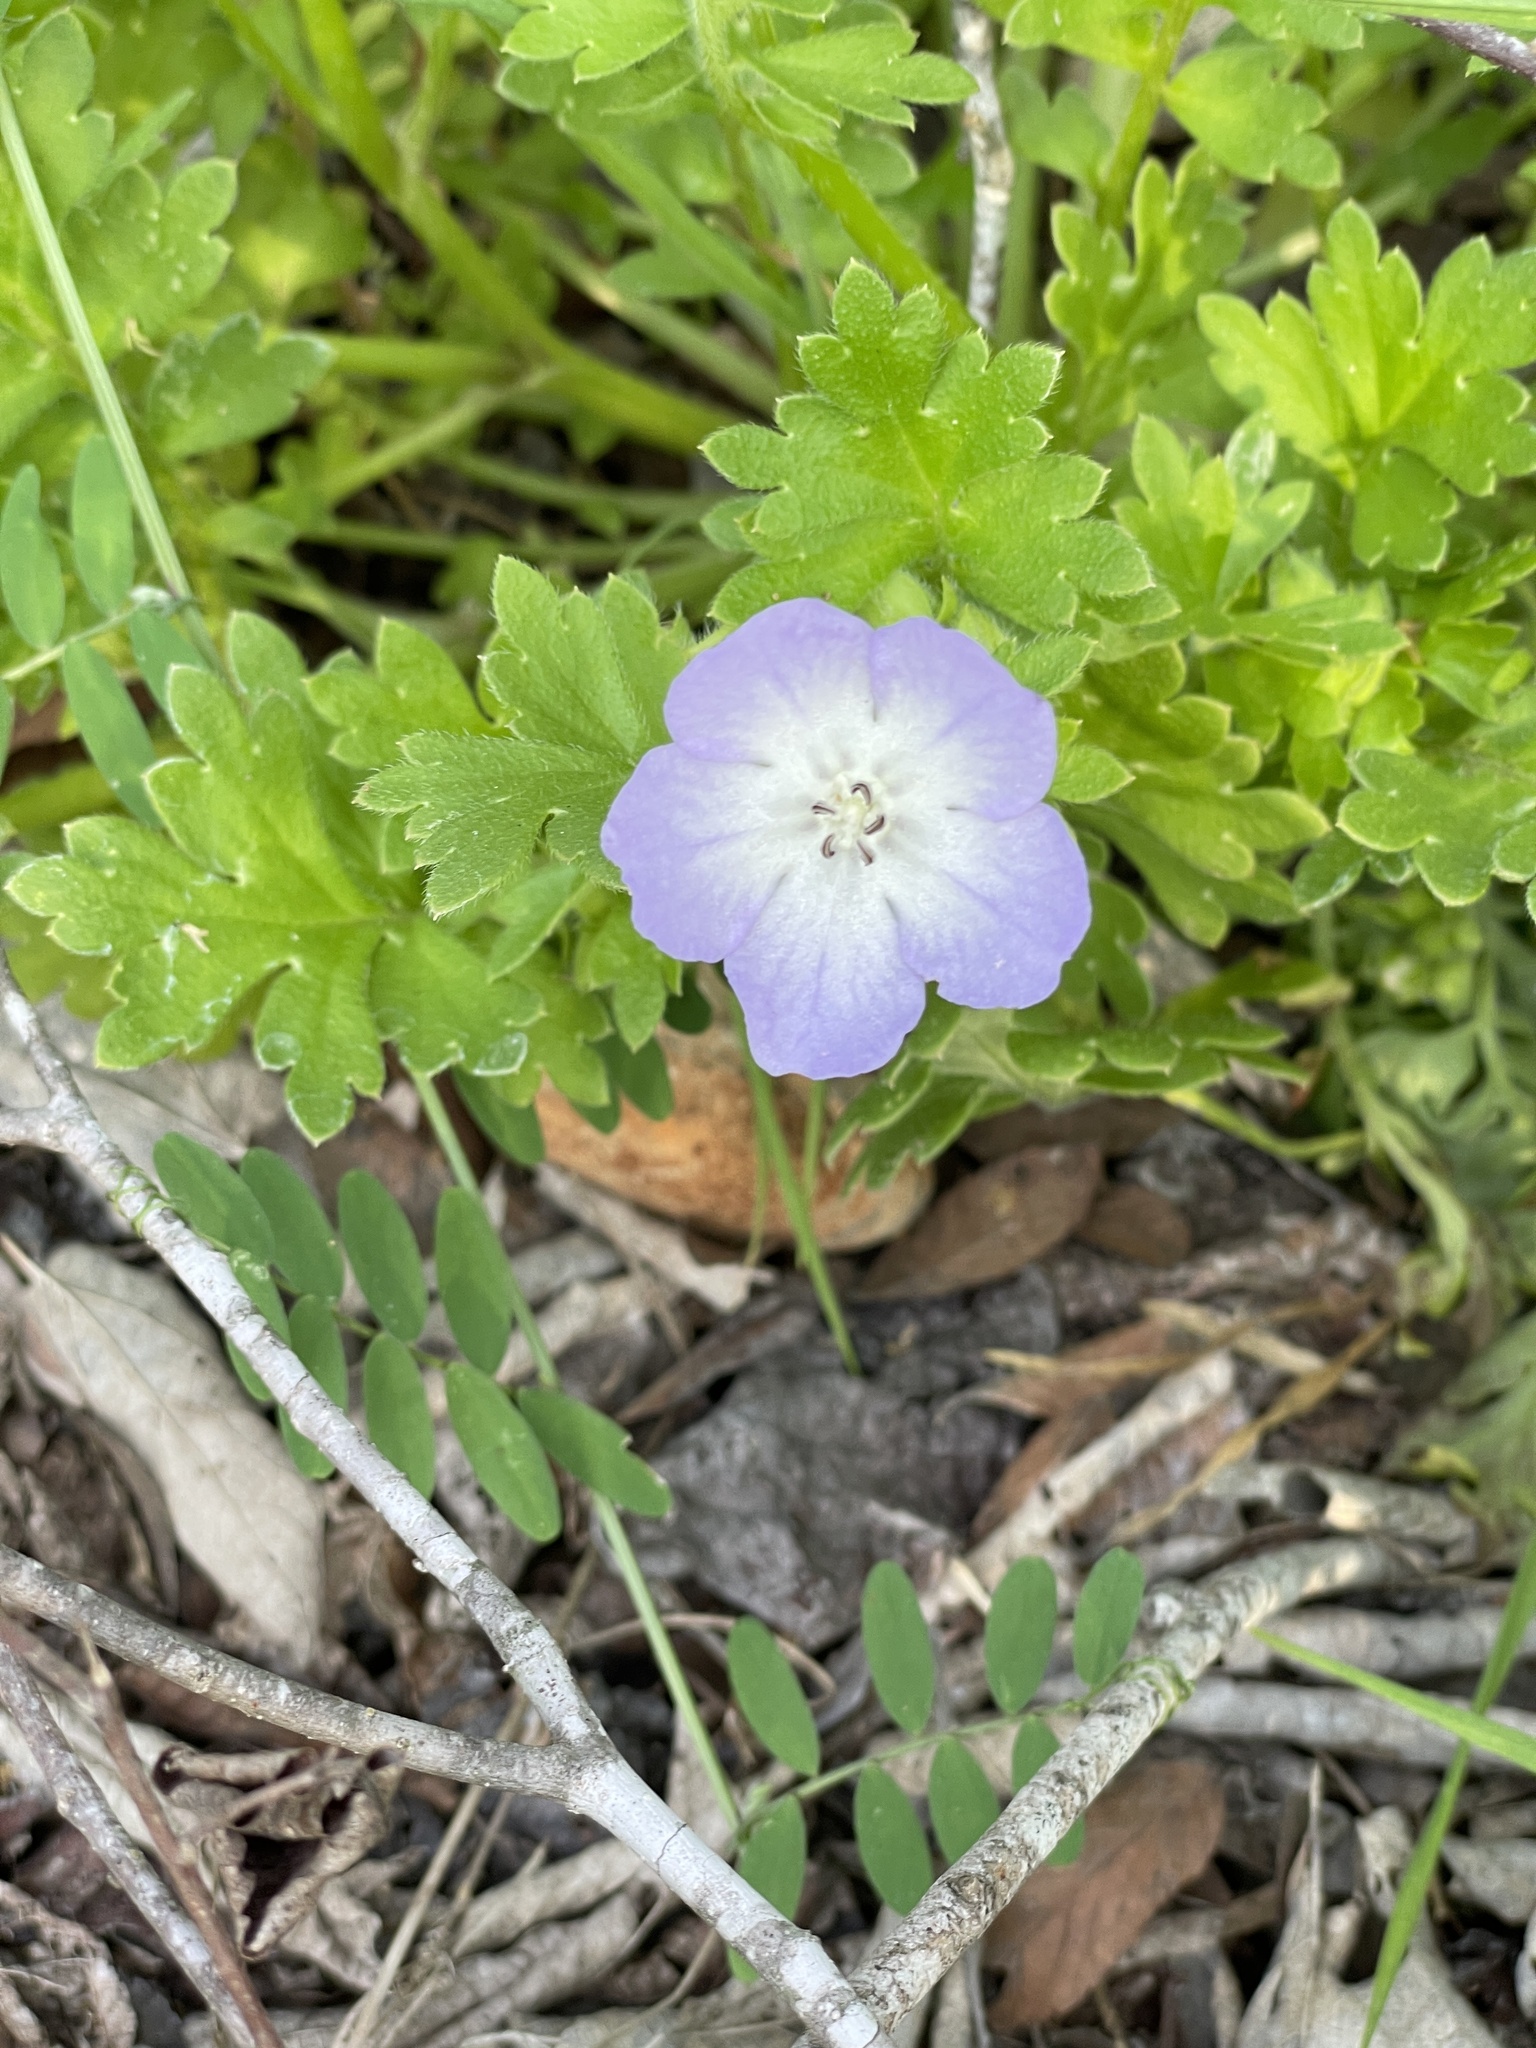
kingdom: Plantae
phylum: Tracheophyta
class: Magnoliopsida
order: Boraginales
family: Hydrophyllaceae
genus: Nemophila
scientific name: Nemophila phacelioides
